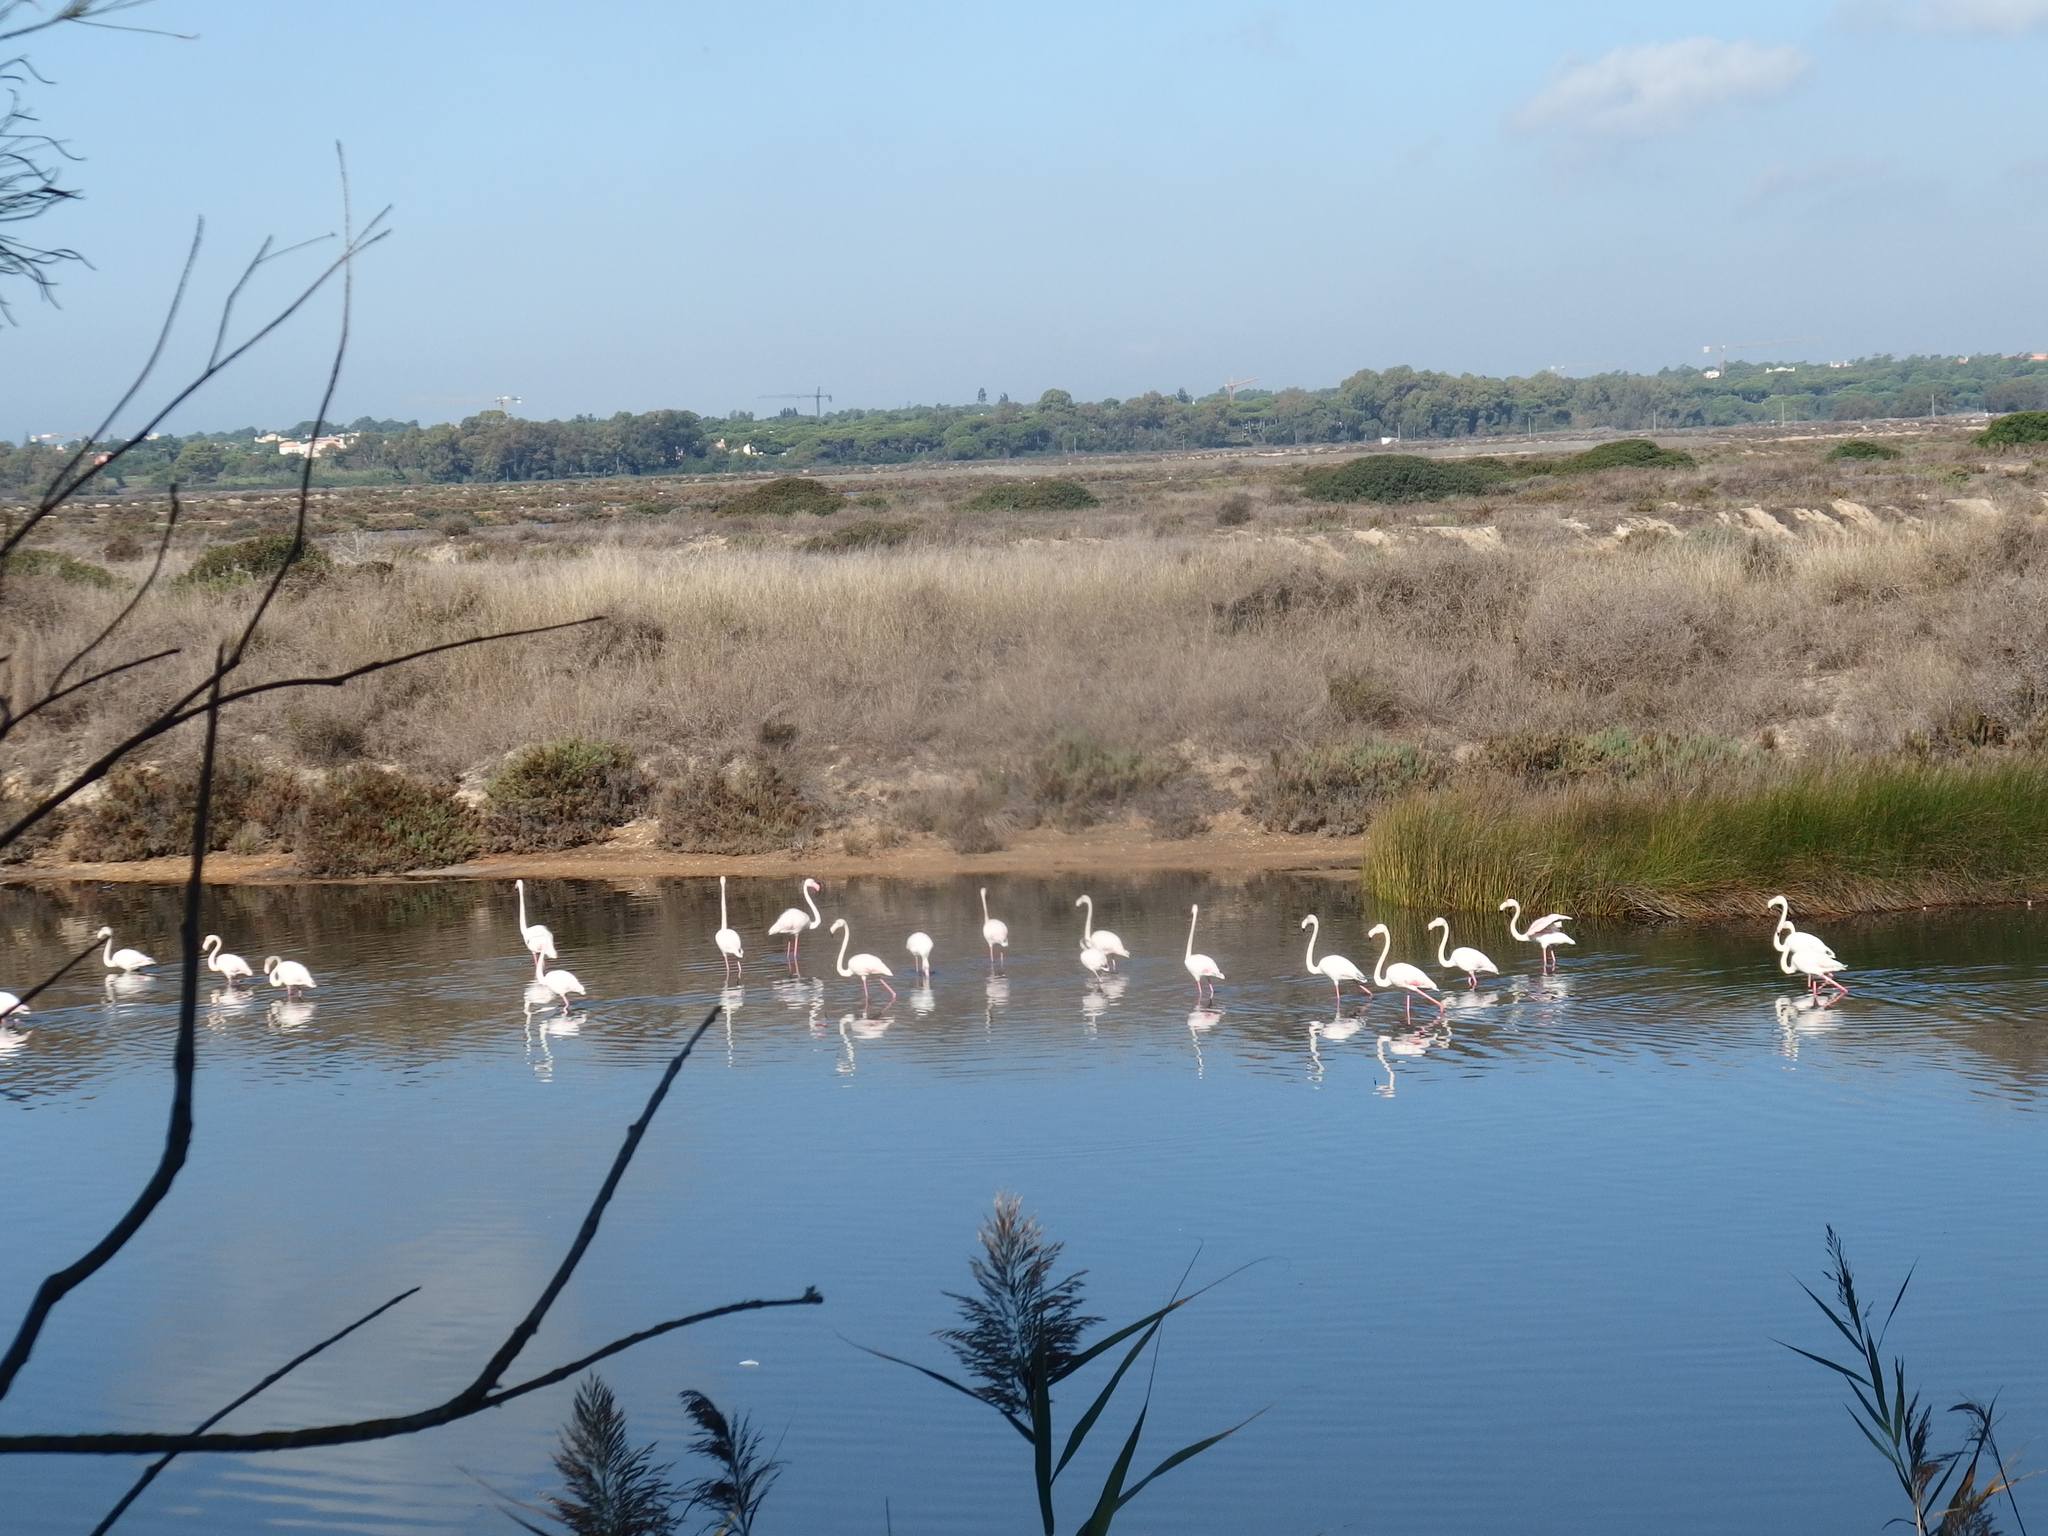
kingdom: Animalia
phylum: Chordata
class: Aves
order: Phoenicopteriformes
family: Phoenicopteridae
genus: Phoenicopterus
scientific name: Phoenicopterus roseus
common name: Greater flamingo
